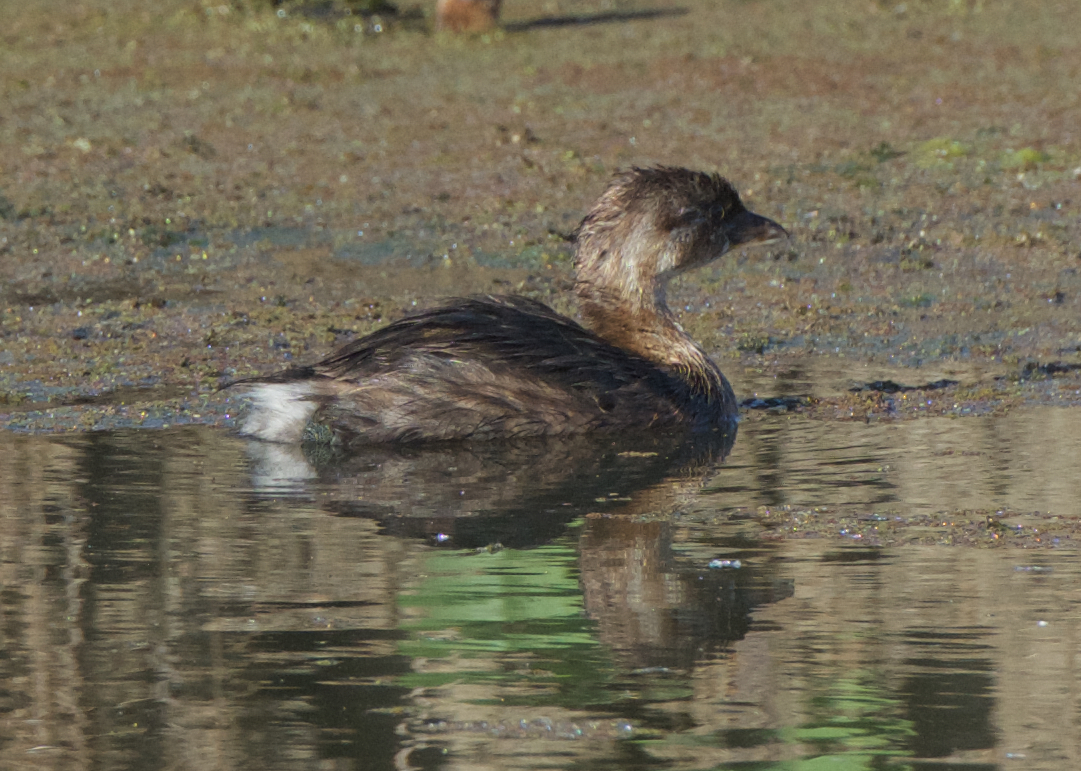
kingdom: Animalia
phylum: Chordata
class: Aves
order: Podicipediformes
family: Podicipedidae
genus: Podilymbus
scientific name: Podilymbus podiceps
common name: Pied-billed grebe
